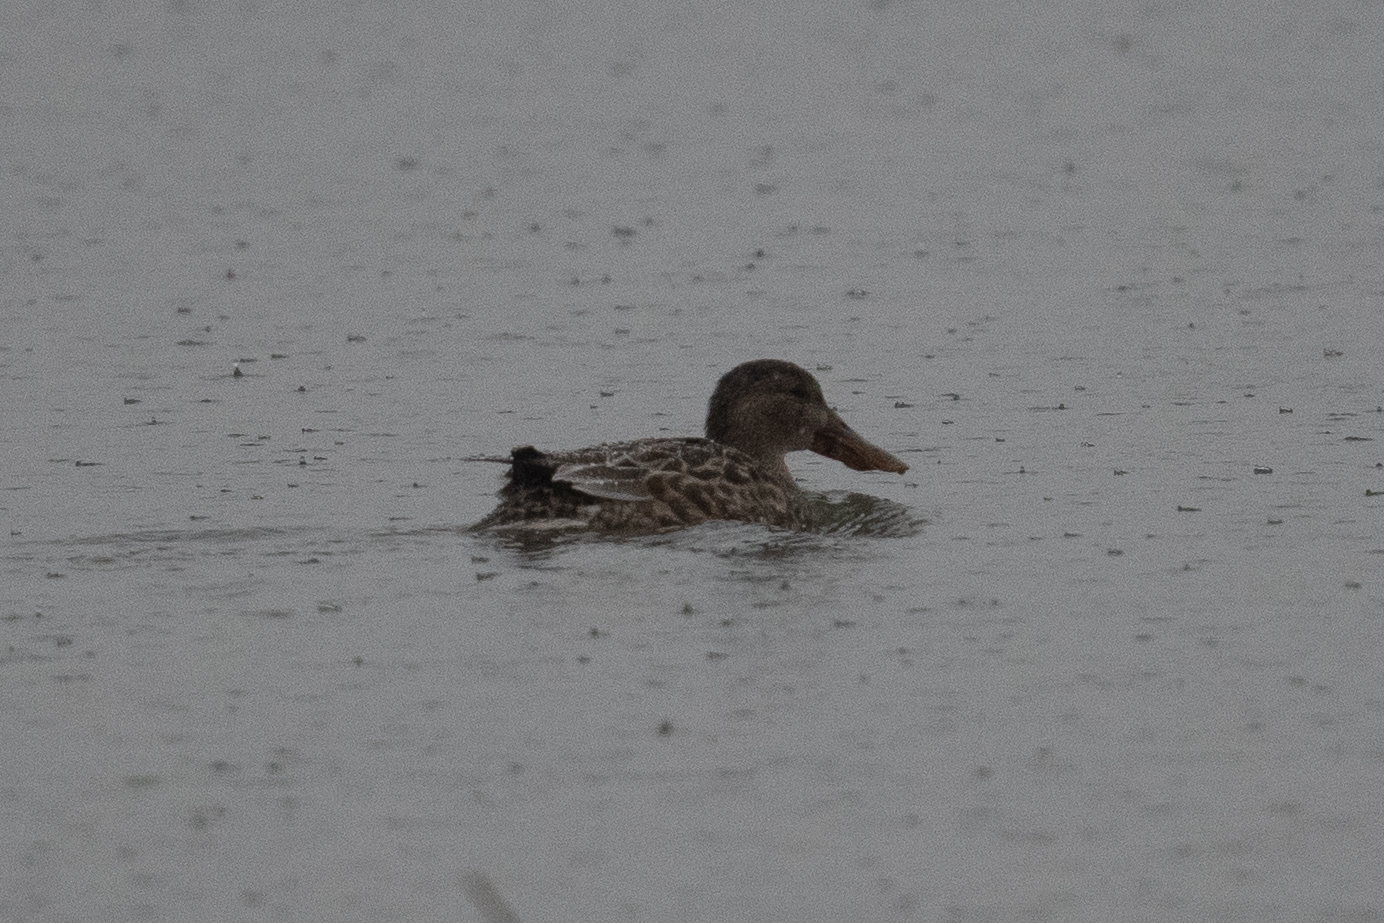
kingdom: Animalia
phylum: Chordata
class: Aves
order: Anseriformes
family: Anatidae
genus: Spatula
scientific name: Spatula clypeata
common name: Northern shoveler
